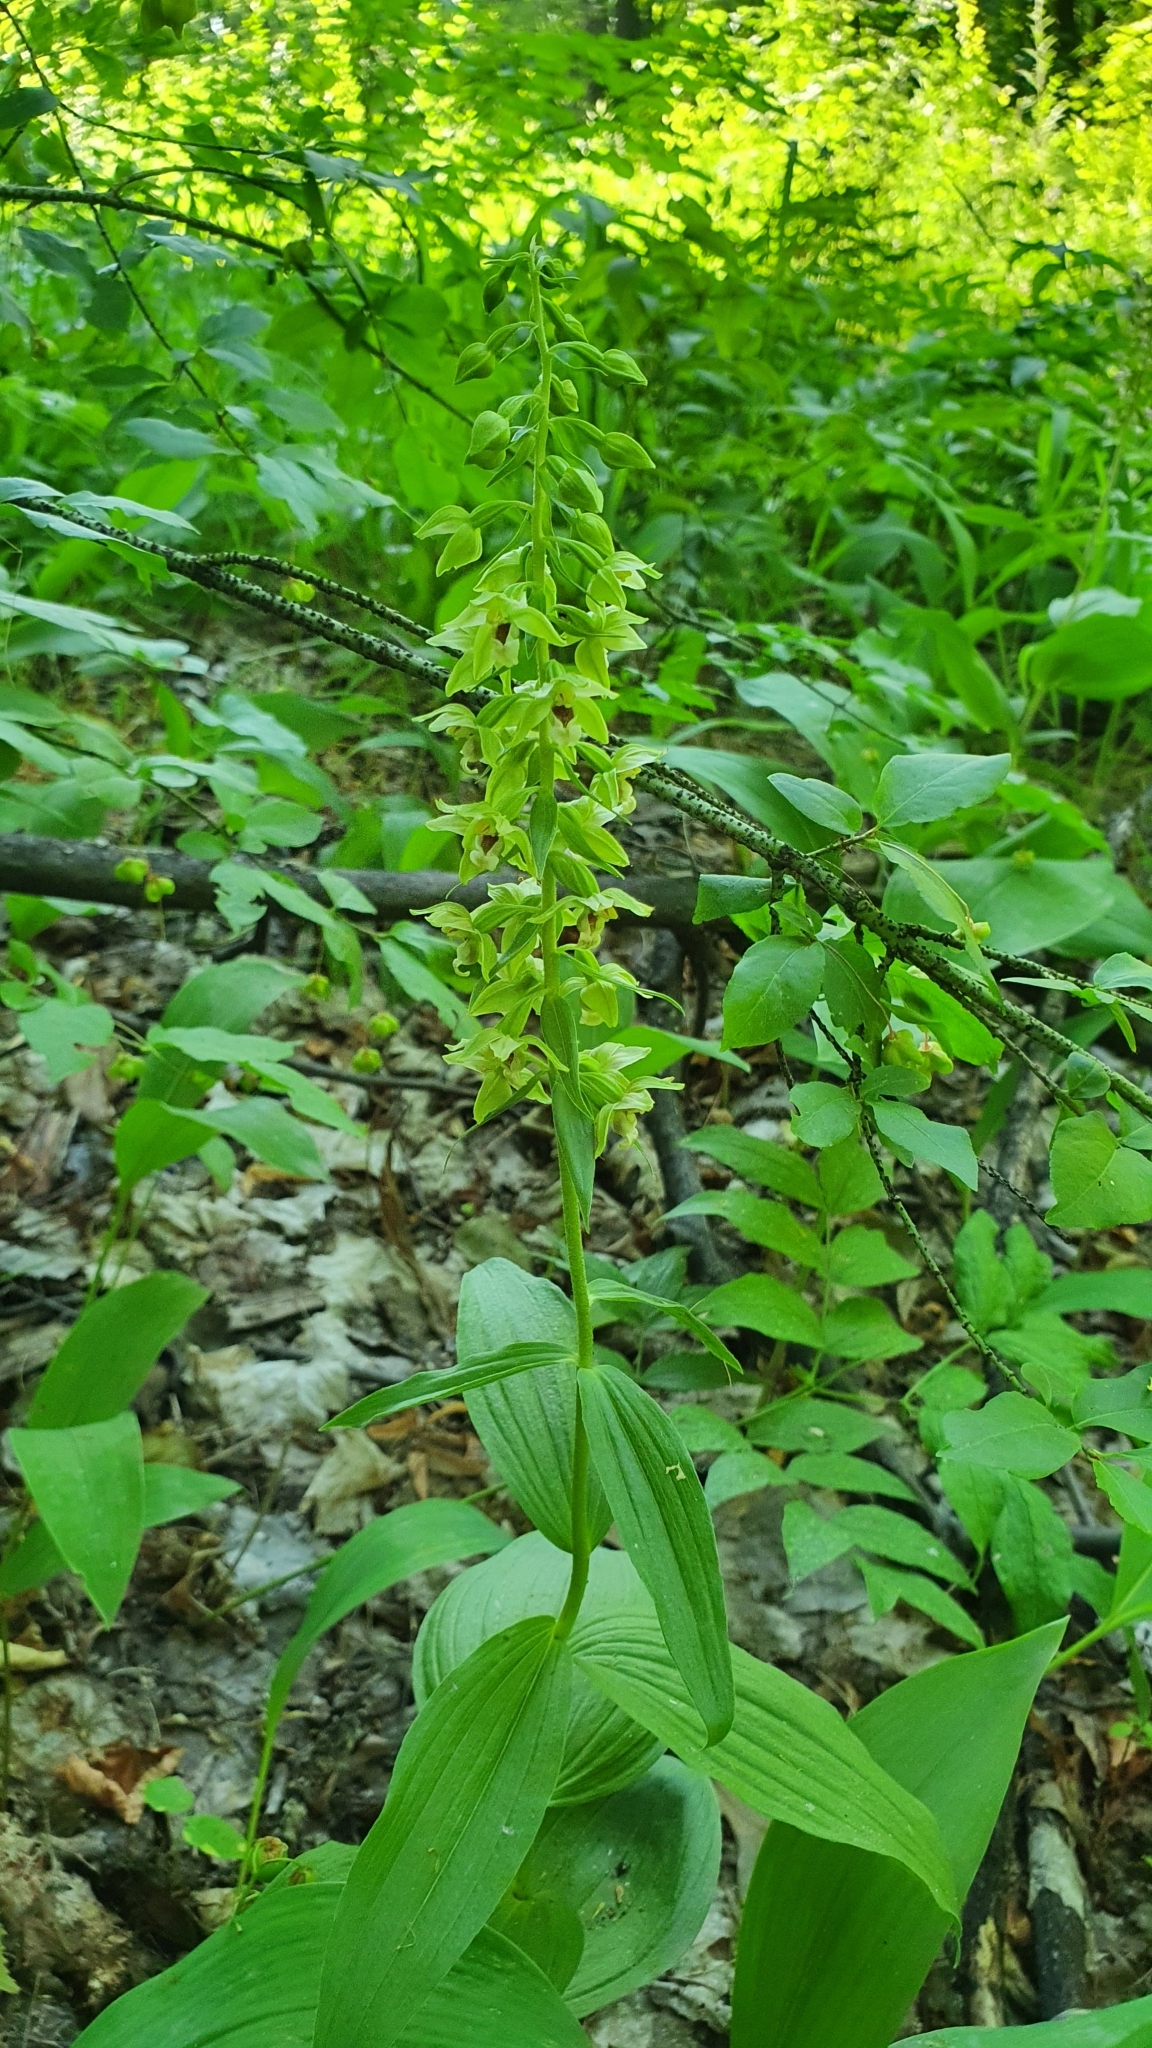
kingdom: Plantae
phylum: Tracheophyta
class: Liliopsida
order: Asparagales
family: Orchidaceae
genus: Epipactis
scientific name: Epipactis helleborine
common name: Broad-leaved helleborine
